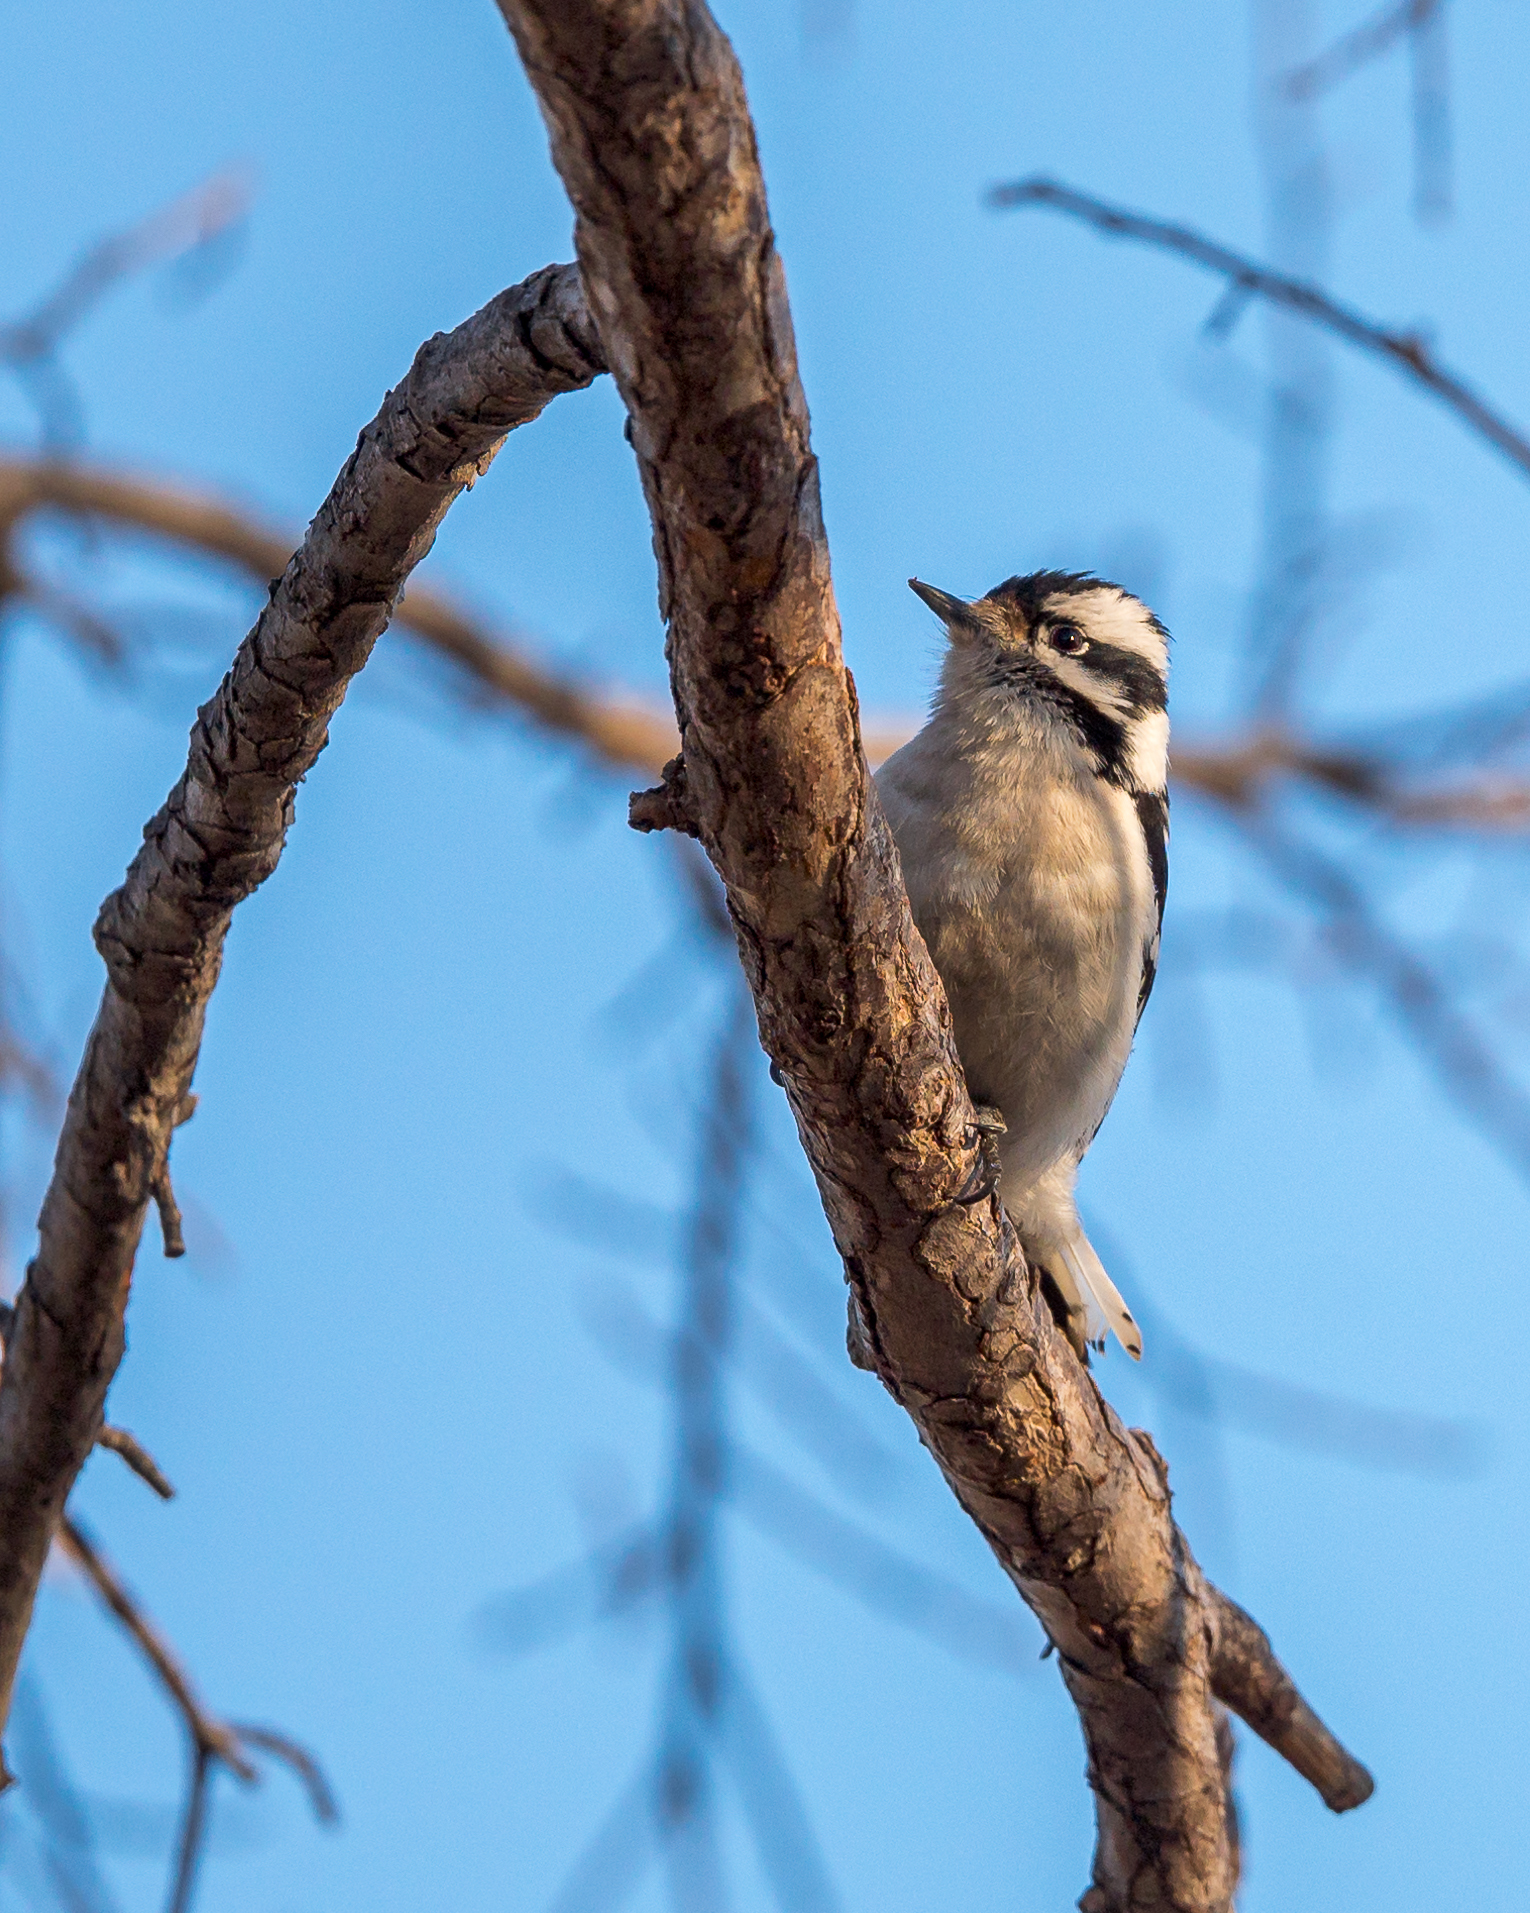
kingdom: Animalia
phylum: Chordata
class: Aves
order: Piciformes
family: Picidae
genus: Dryobates
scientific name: Dryobates pubescens
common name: Downy woodpecker
